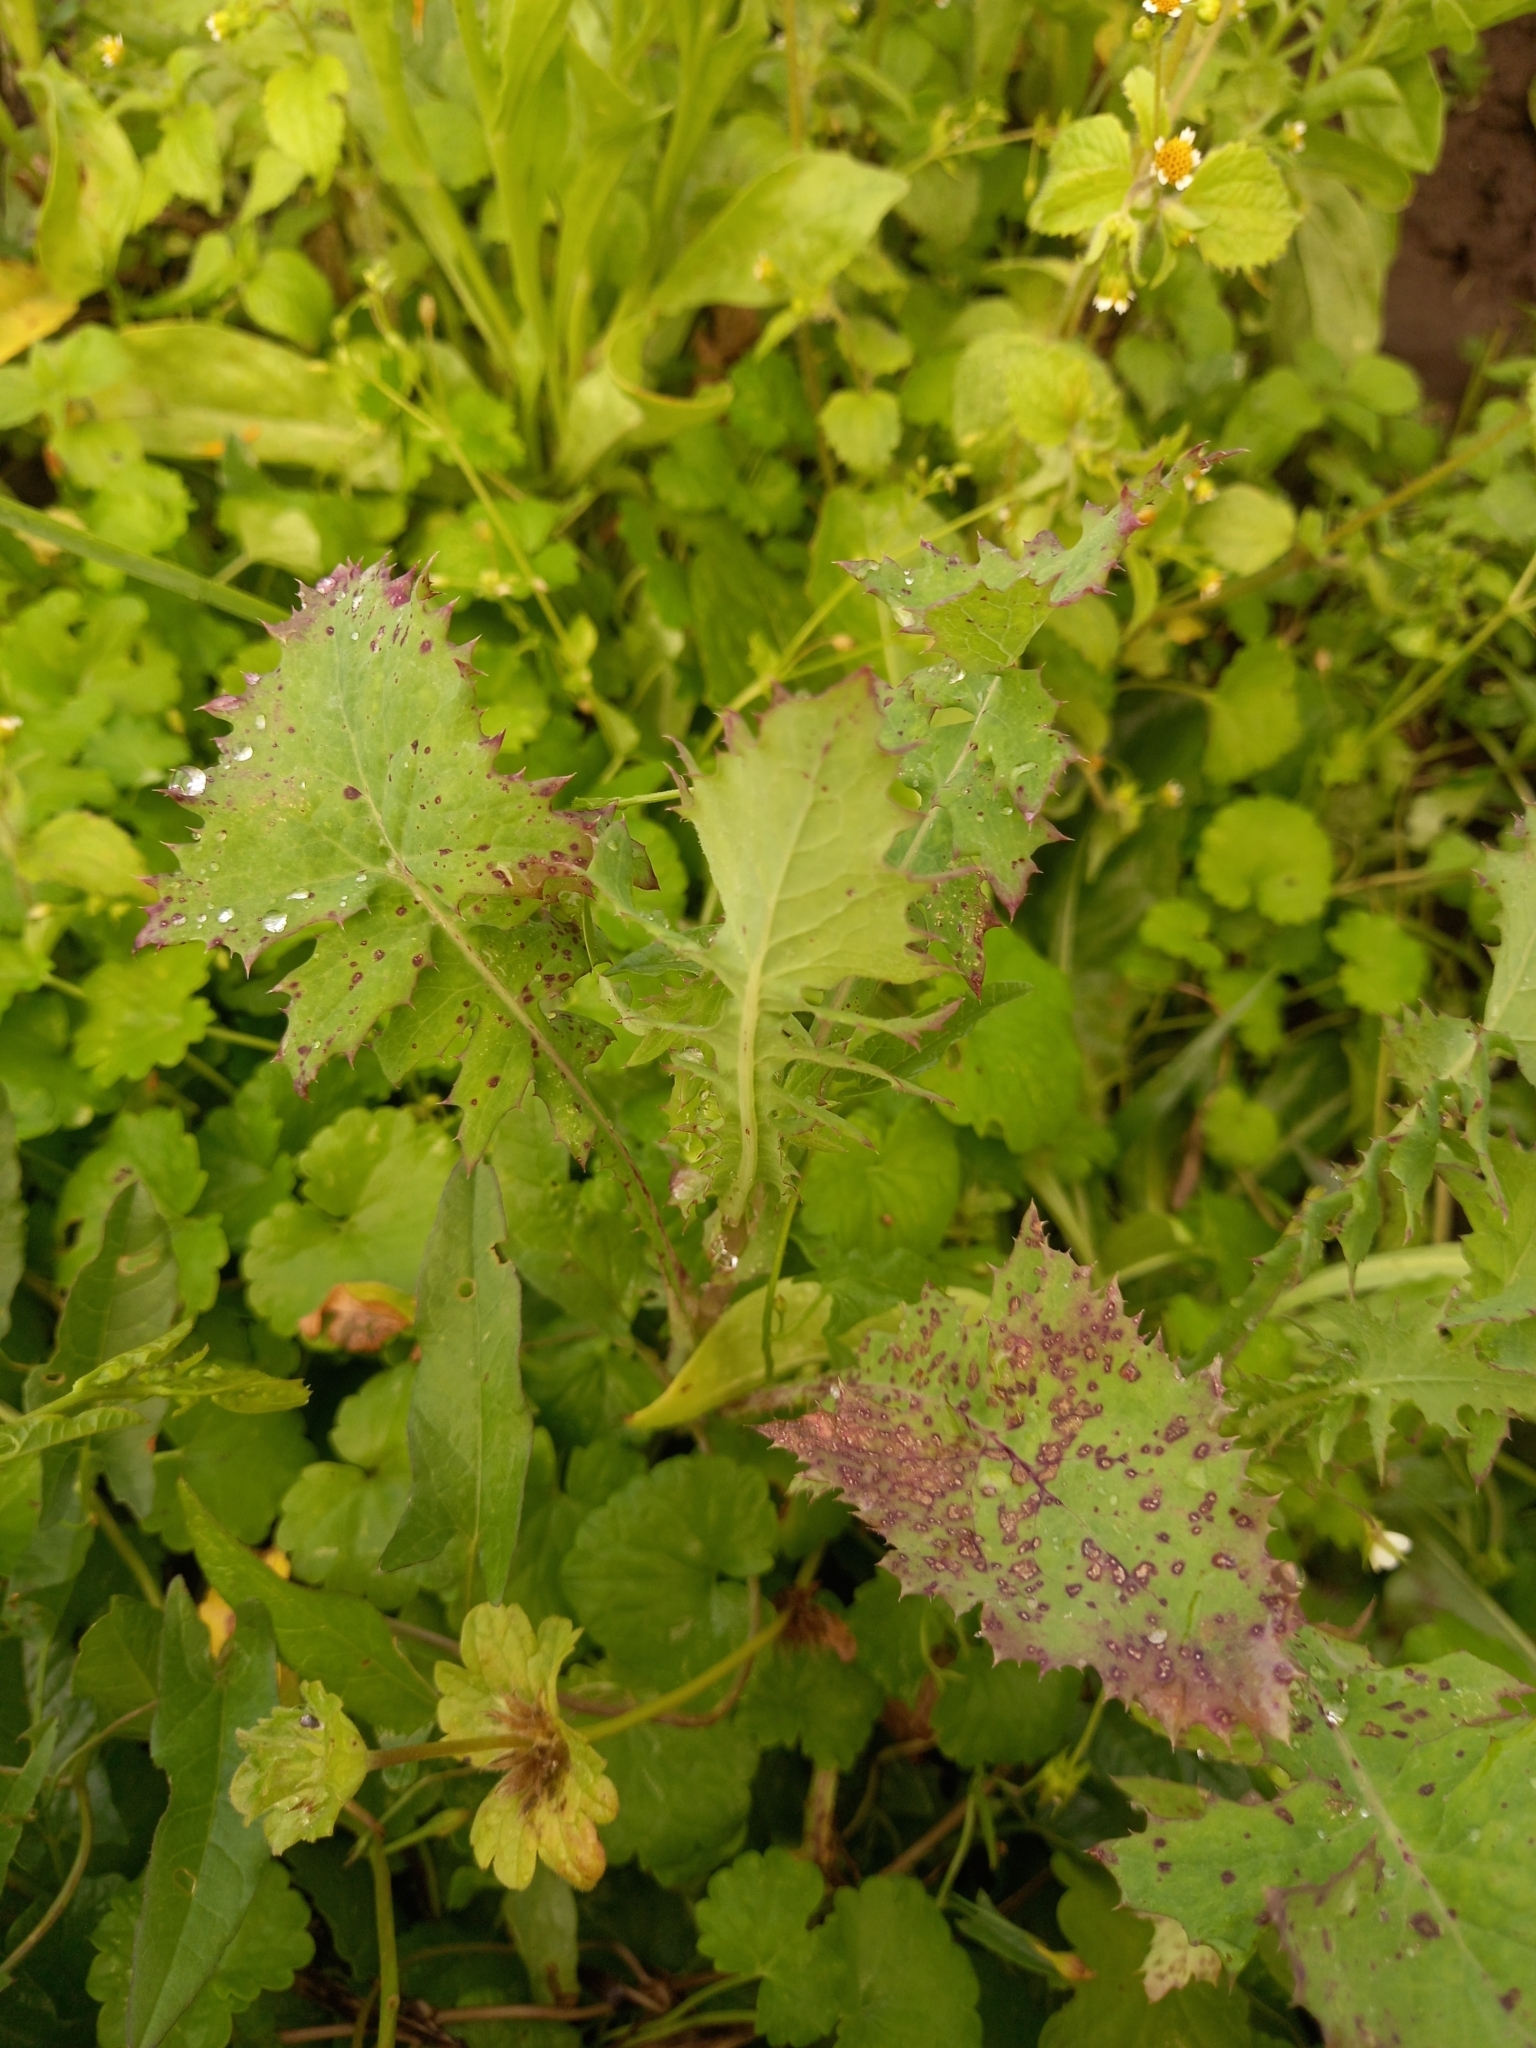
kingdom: Plantae
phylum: Tracheophyta
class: Magnoliopsida
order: Asterales
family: Asteraceae
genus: Sonchus
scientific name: Sonchus oleraceus
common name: Common sowthistle
